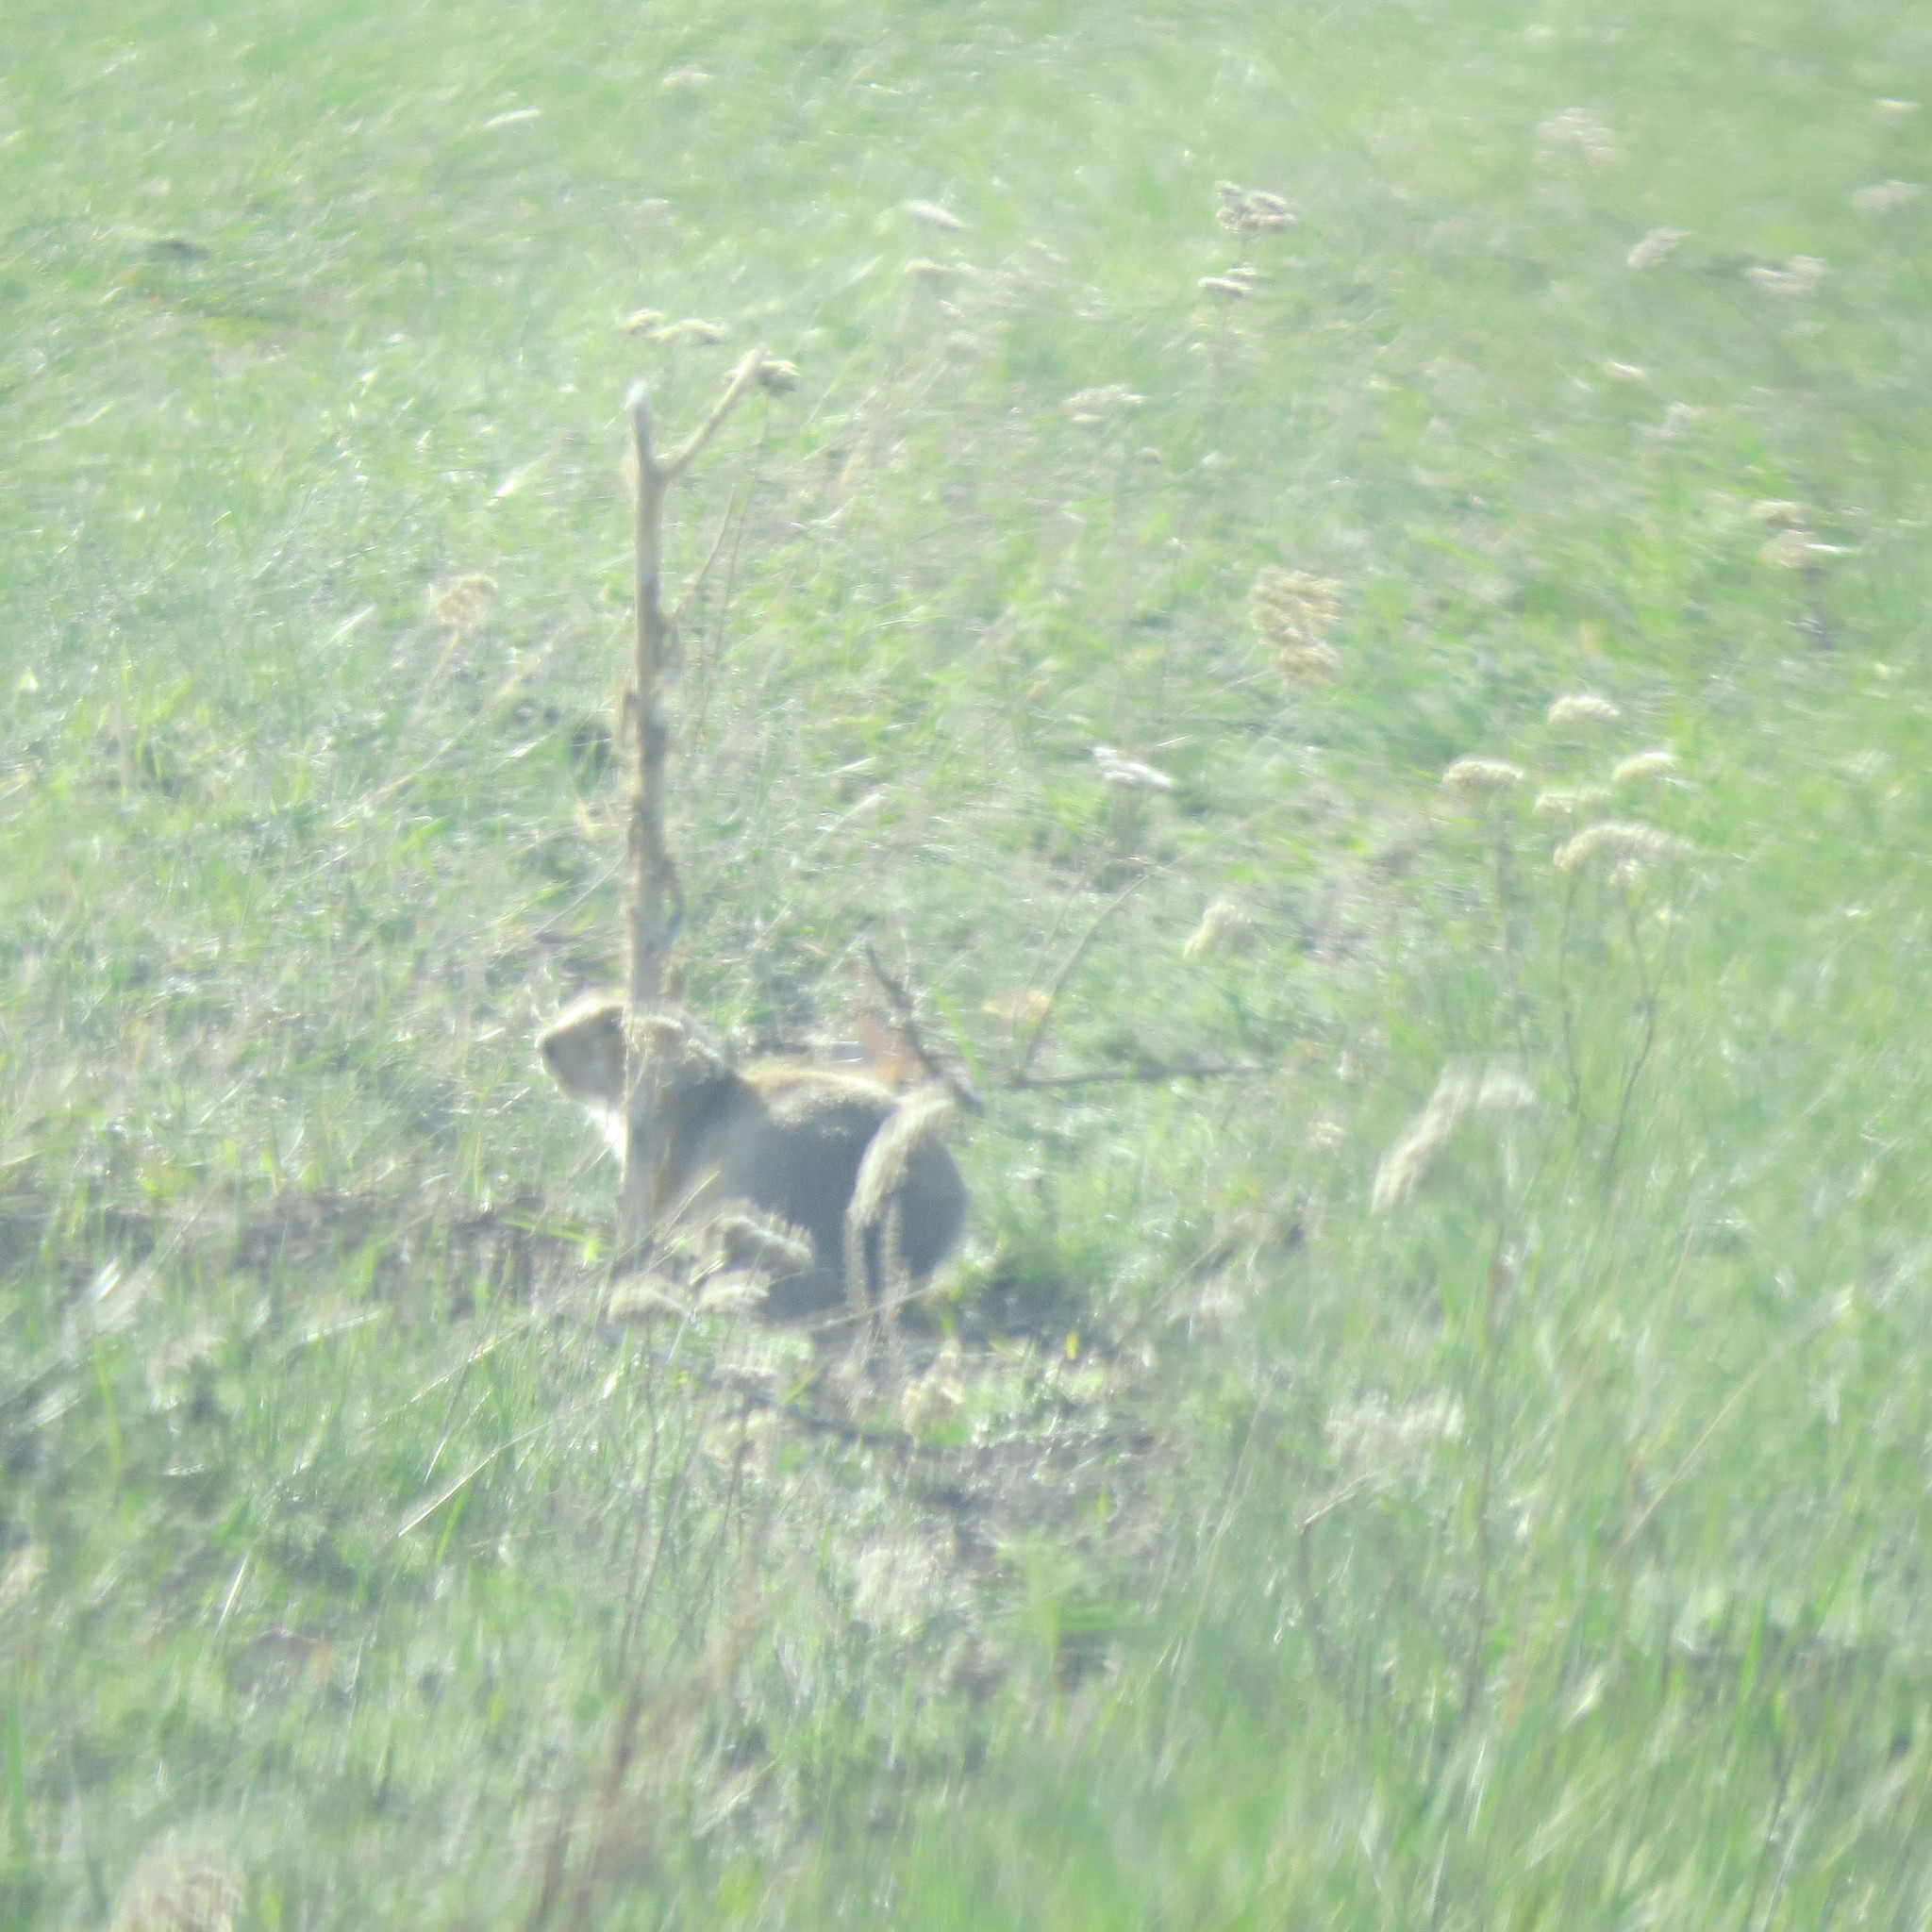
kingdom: Animalia
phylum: Chordata
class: Mammalia
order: Rodentia
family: Sciuridae
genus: Spermophilus
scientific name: Spermophilus major
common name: Russet ground squirrel
